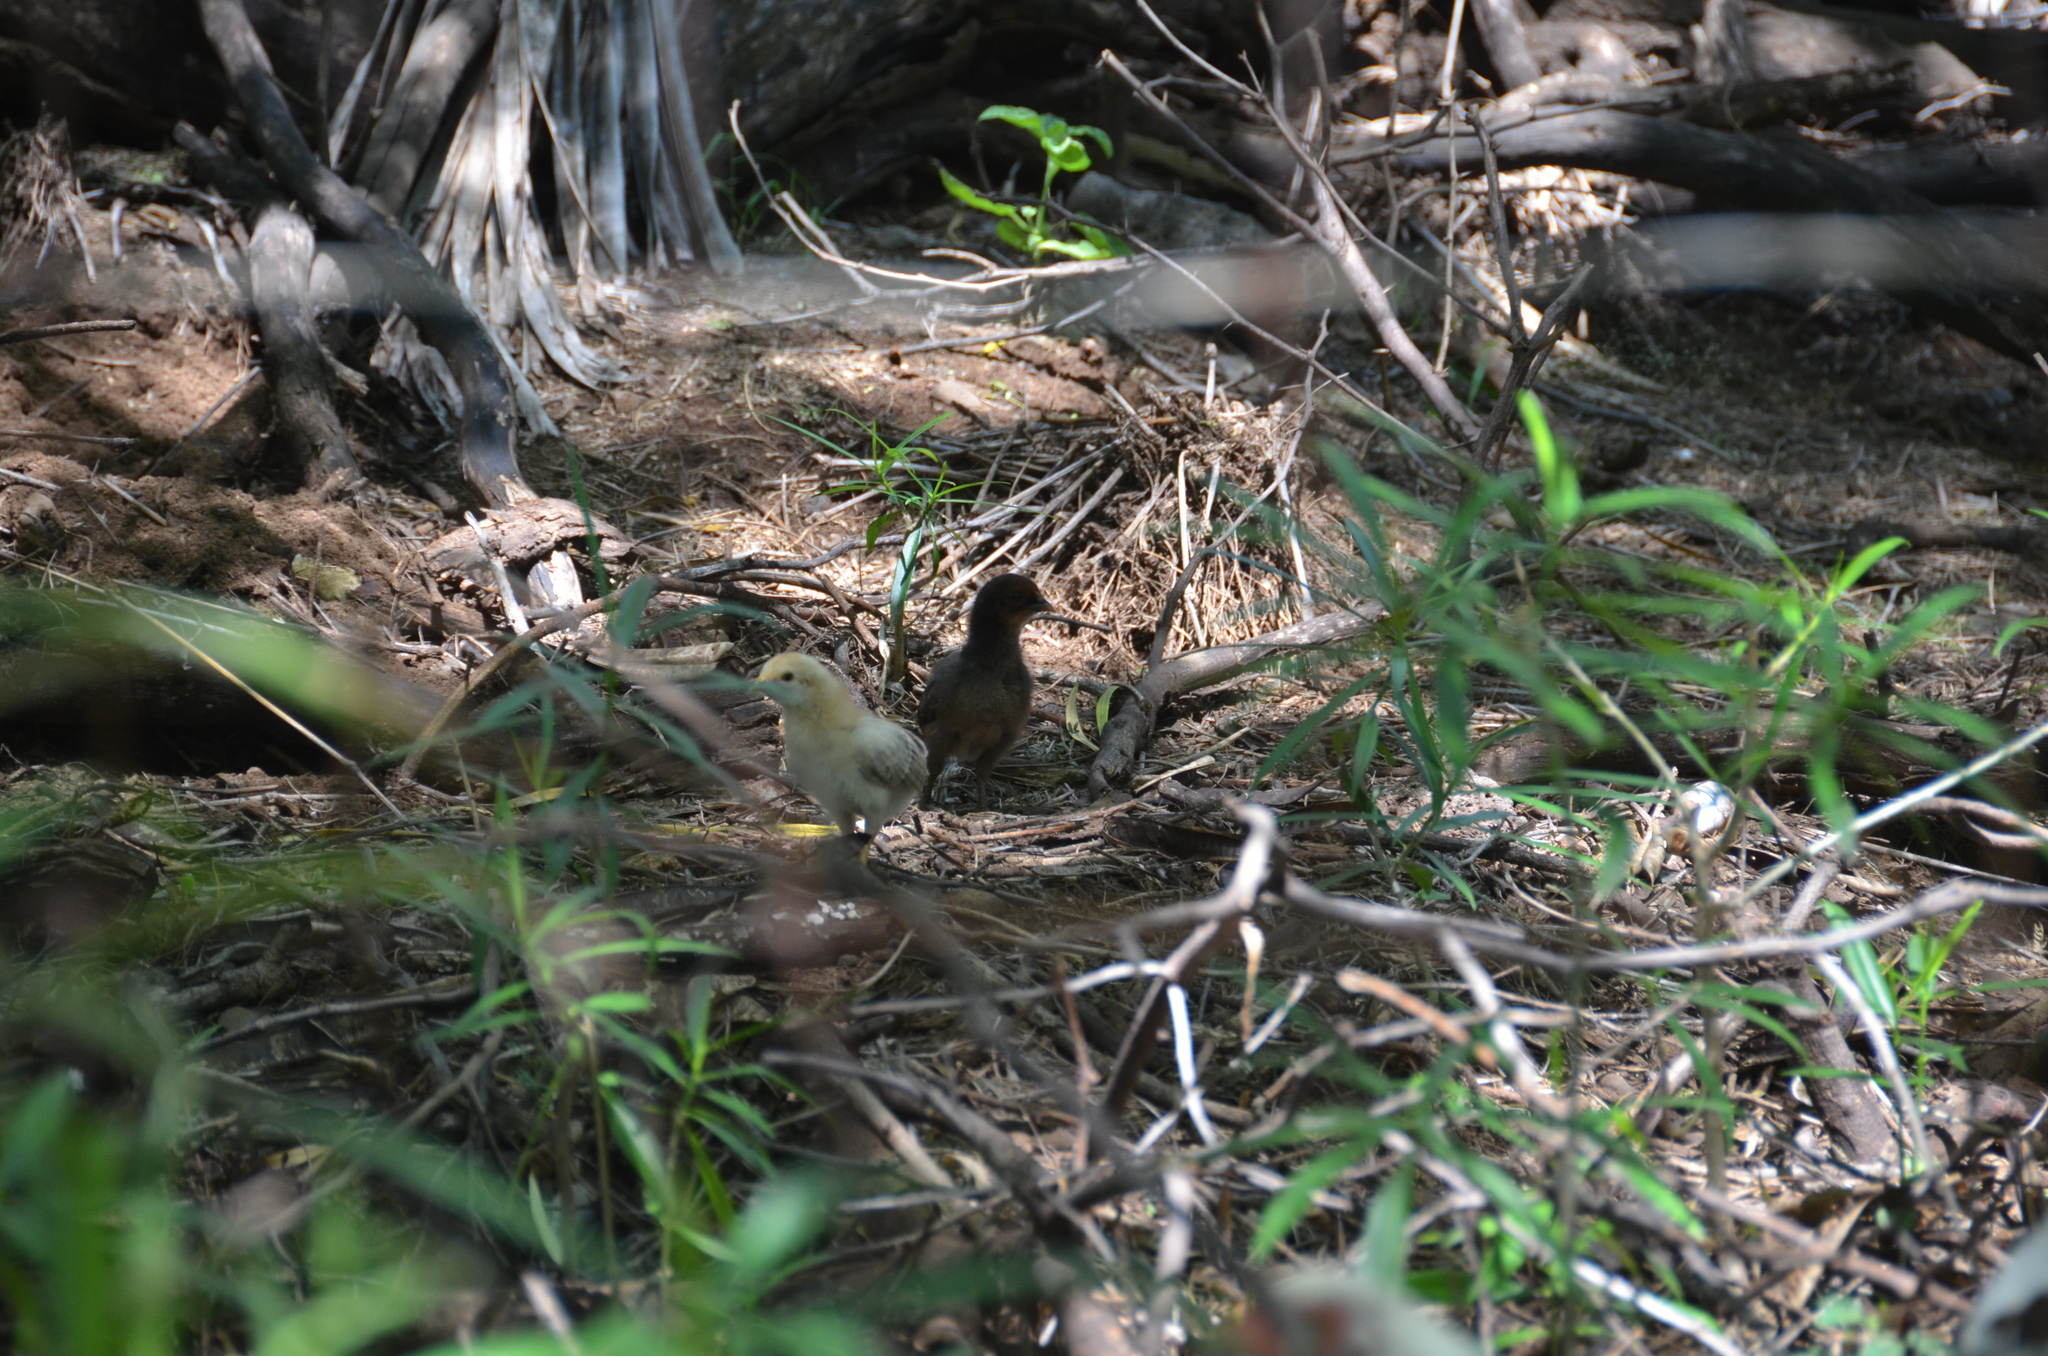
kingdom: Animalia
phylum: Chordata
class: Aves
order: Galliformes
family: Phasianidae
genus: Gallus
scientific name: Gallus gallus
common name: Red junglefowl
